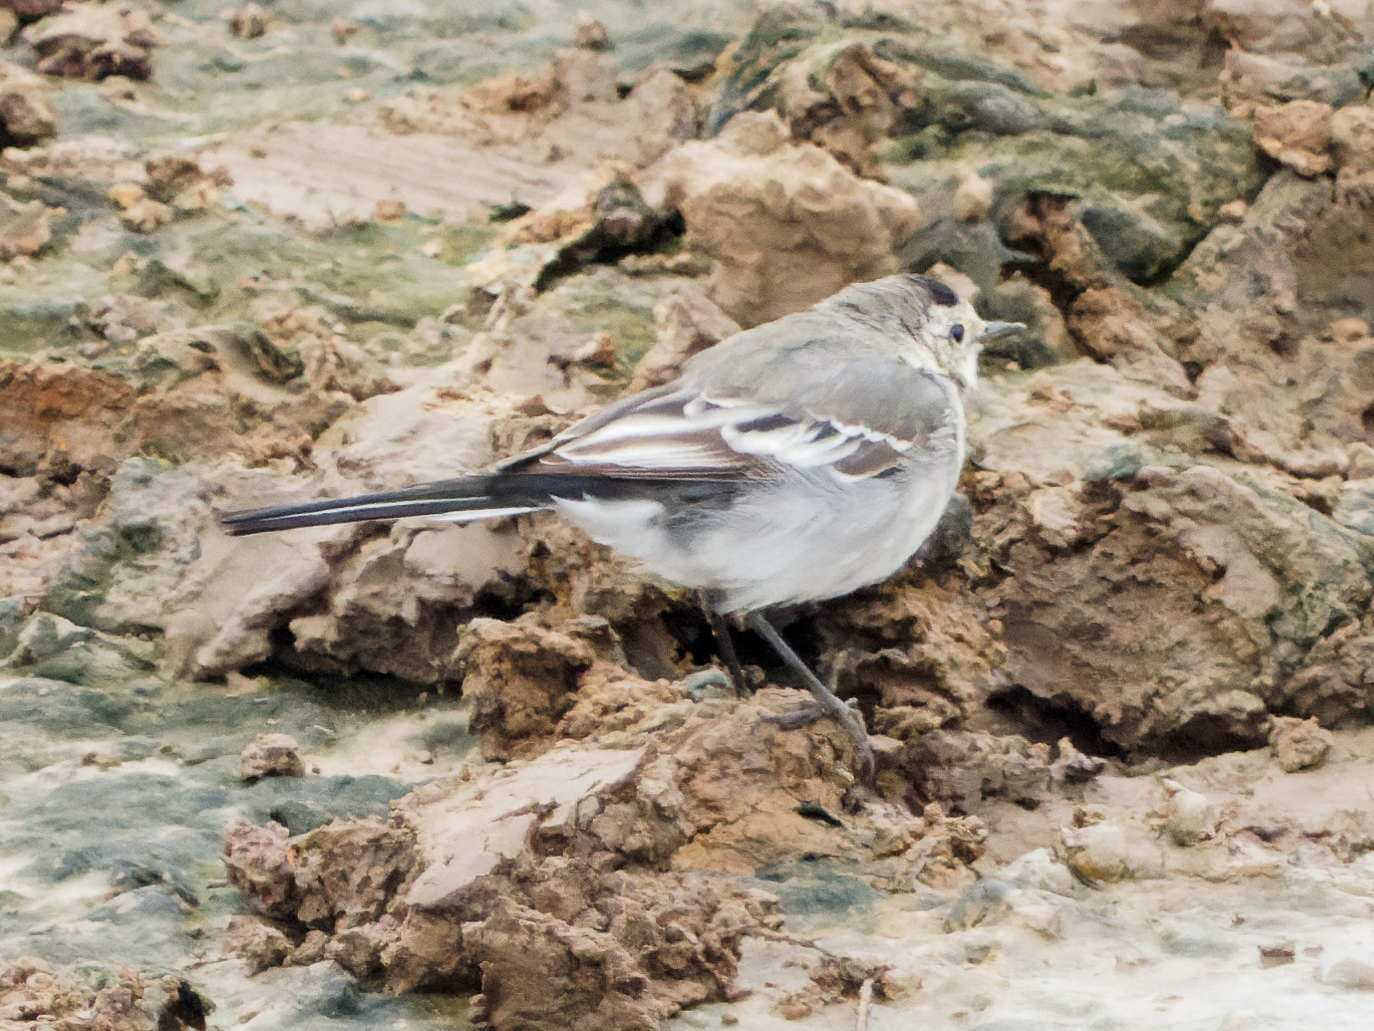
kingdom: Animalia
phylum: Chordata
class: Aves
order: Passeriformes
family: Motacillidae
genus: Motacilla
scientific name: Motacilla alba
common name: White wagtail
